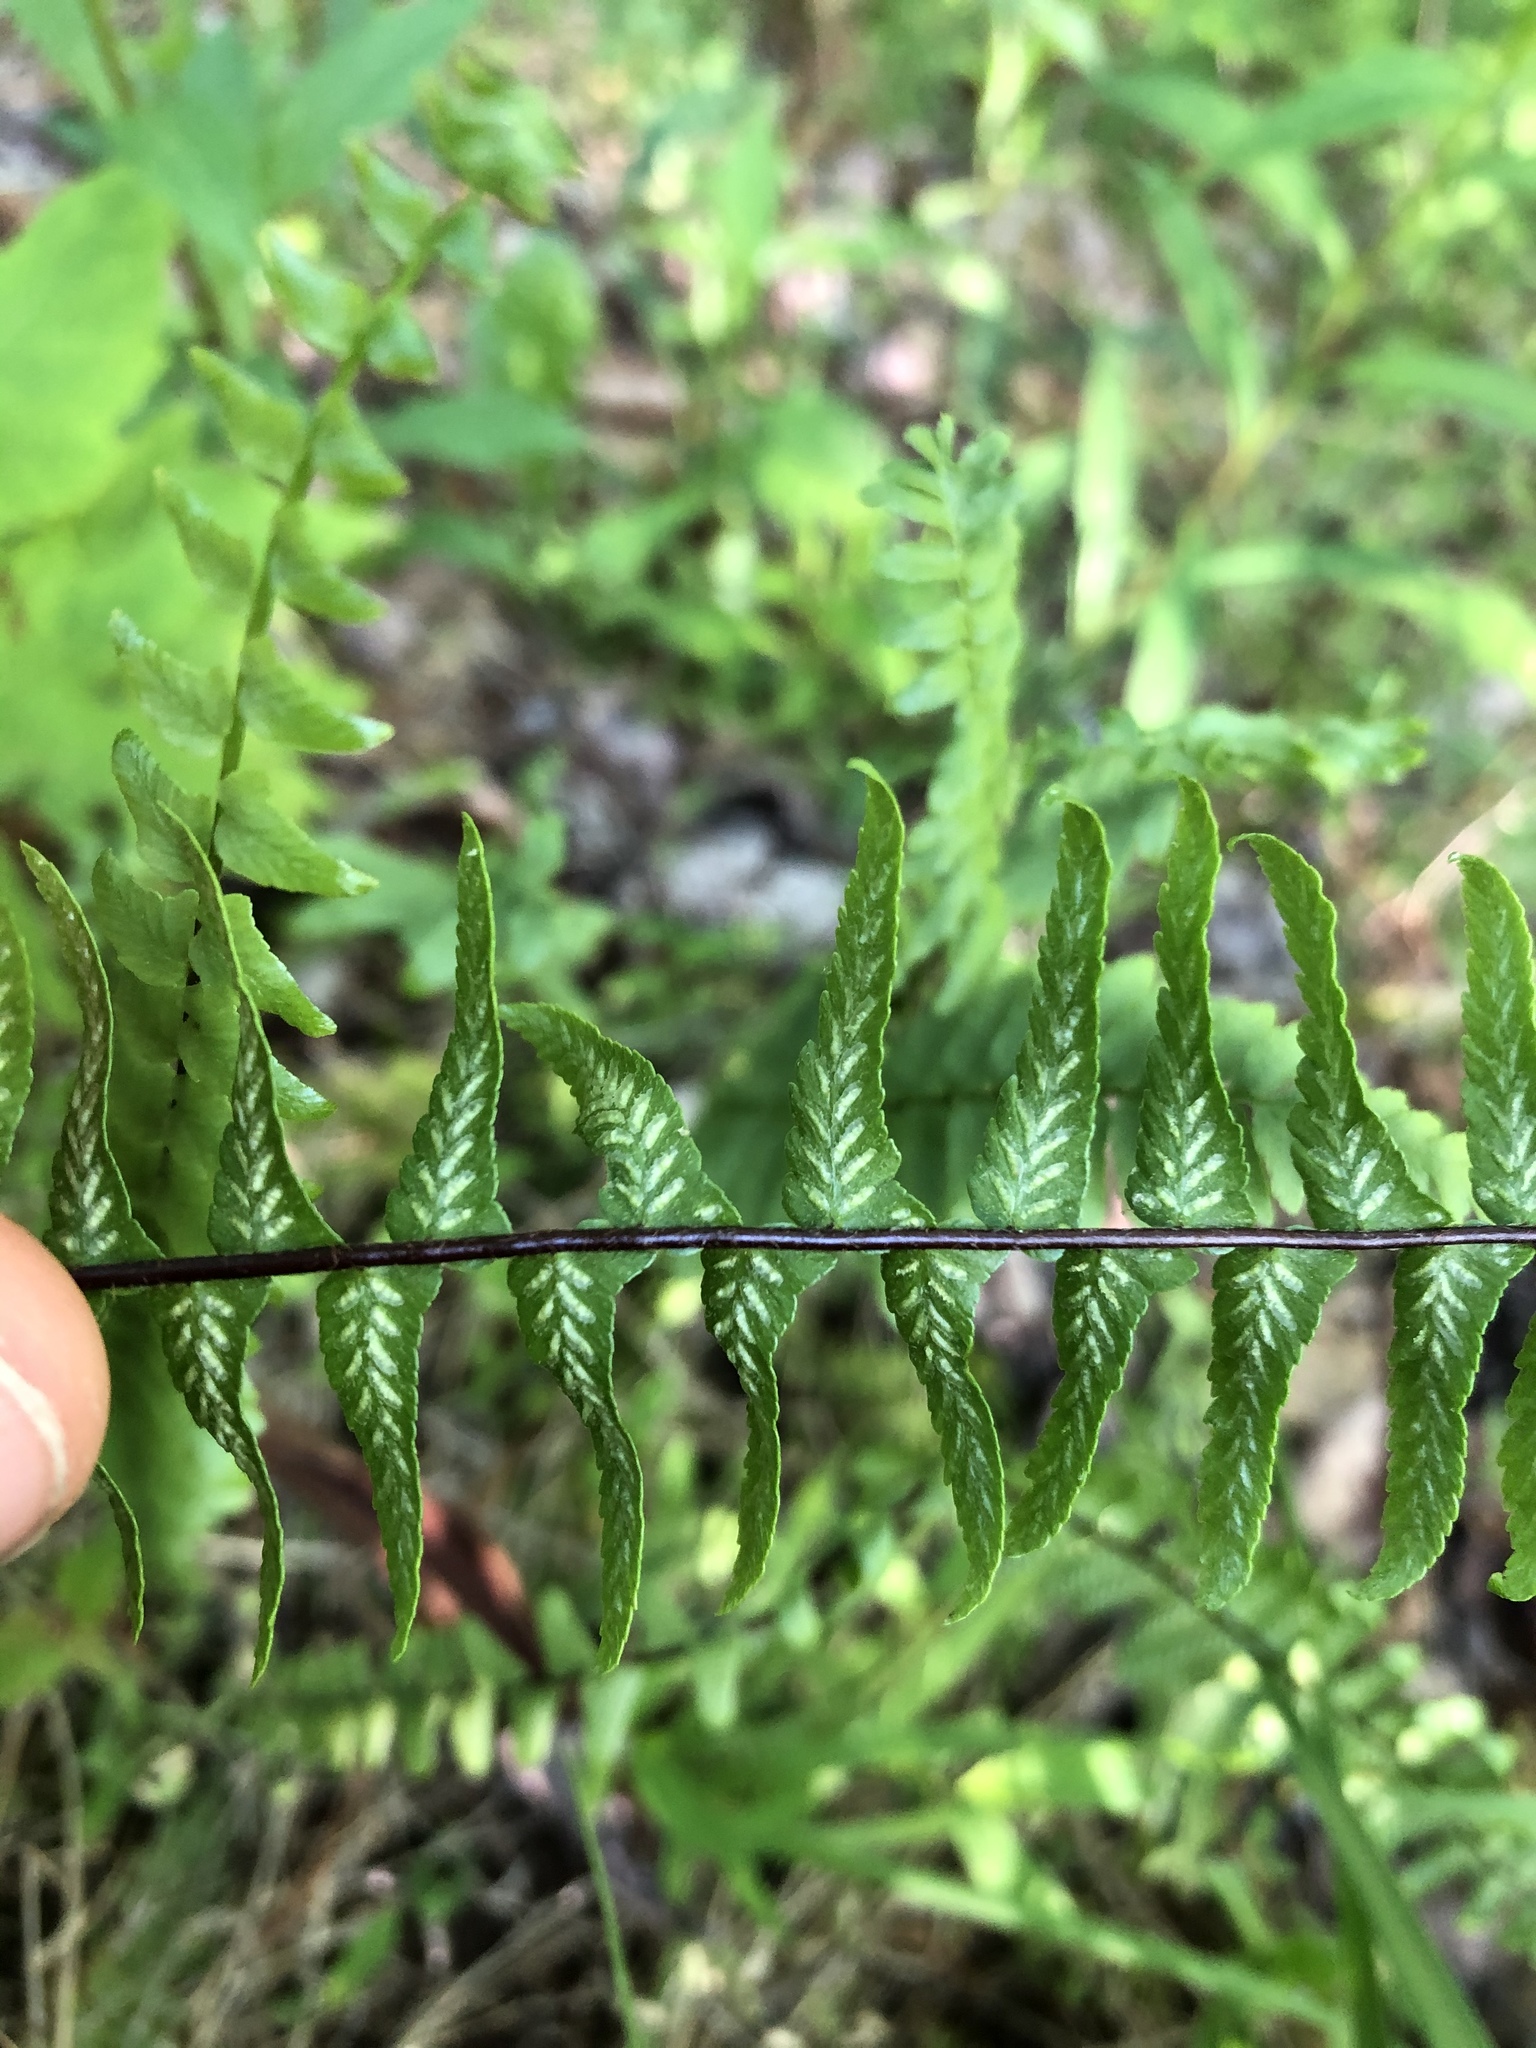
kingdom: Plantae
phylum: Tracheophyta
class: Polypodiopsida
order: Polypodiales
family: Aspleniaceae
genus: Asplenium
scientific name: Asplenium platyneuron
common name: Ebony spleenwort
